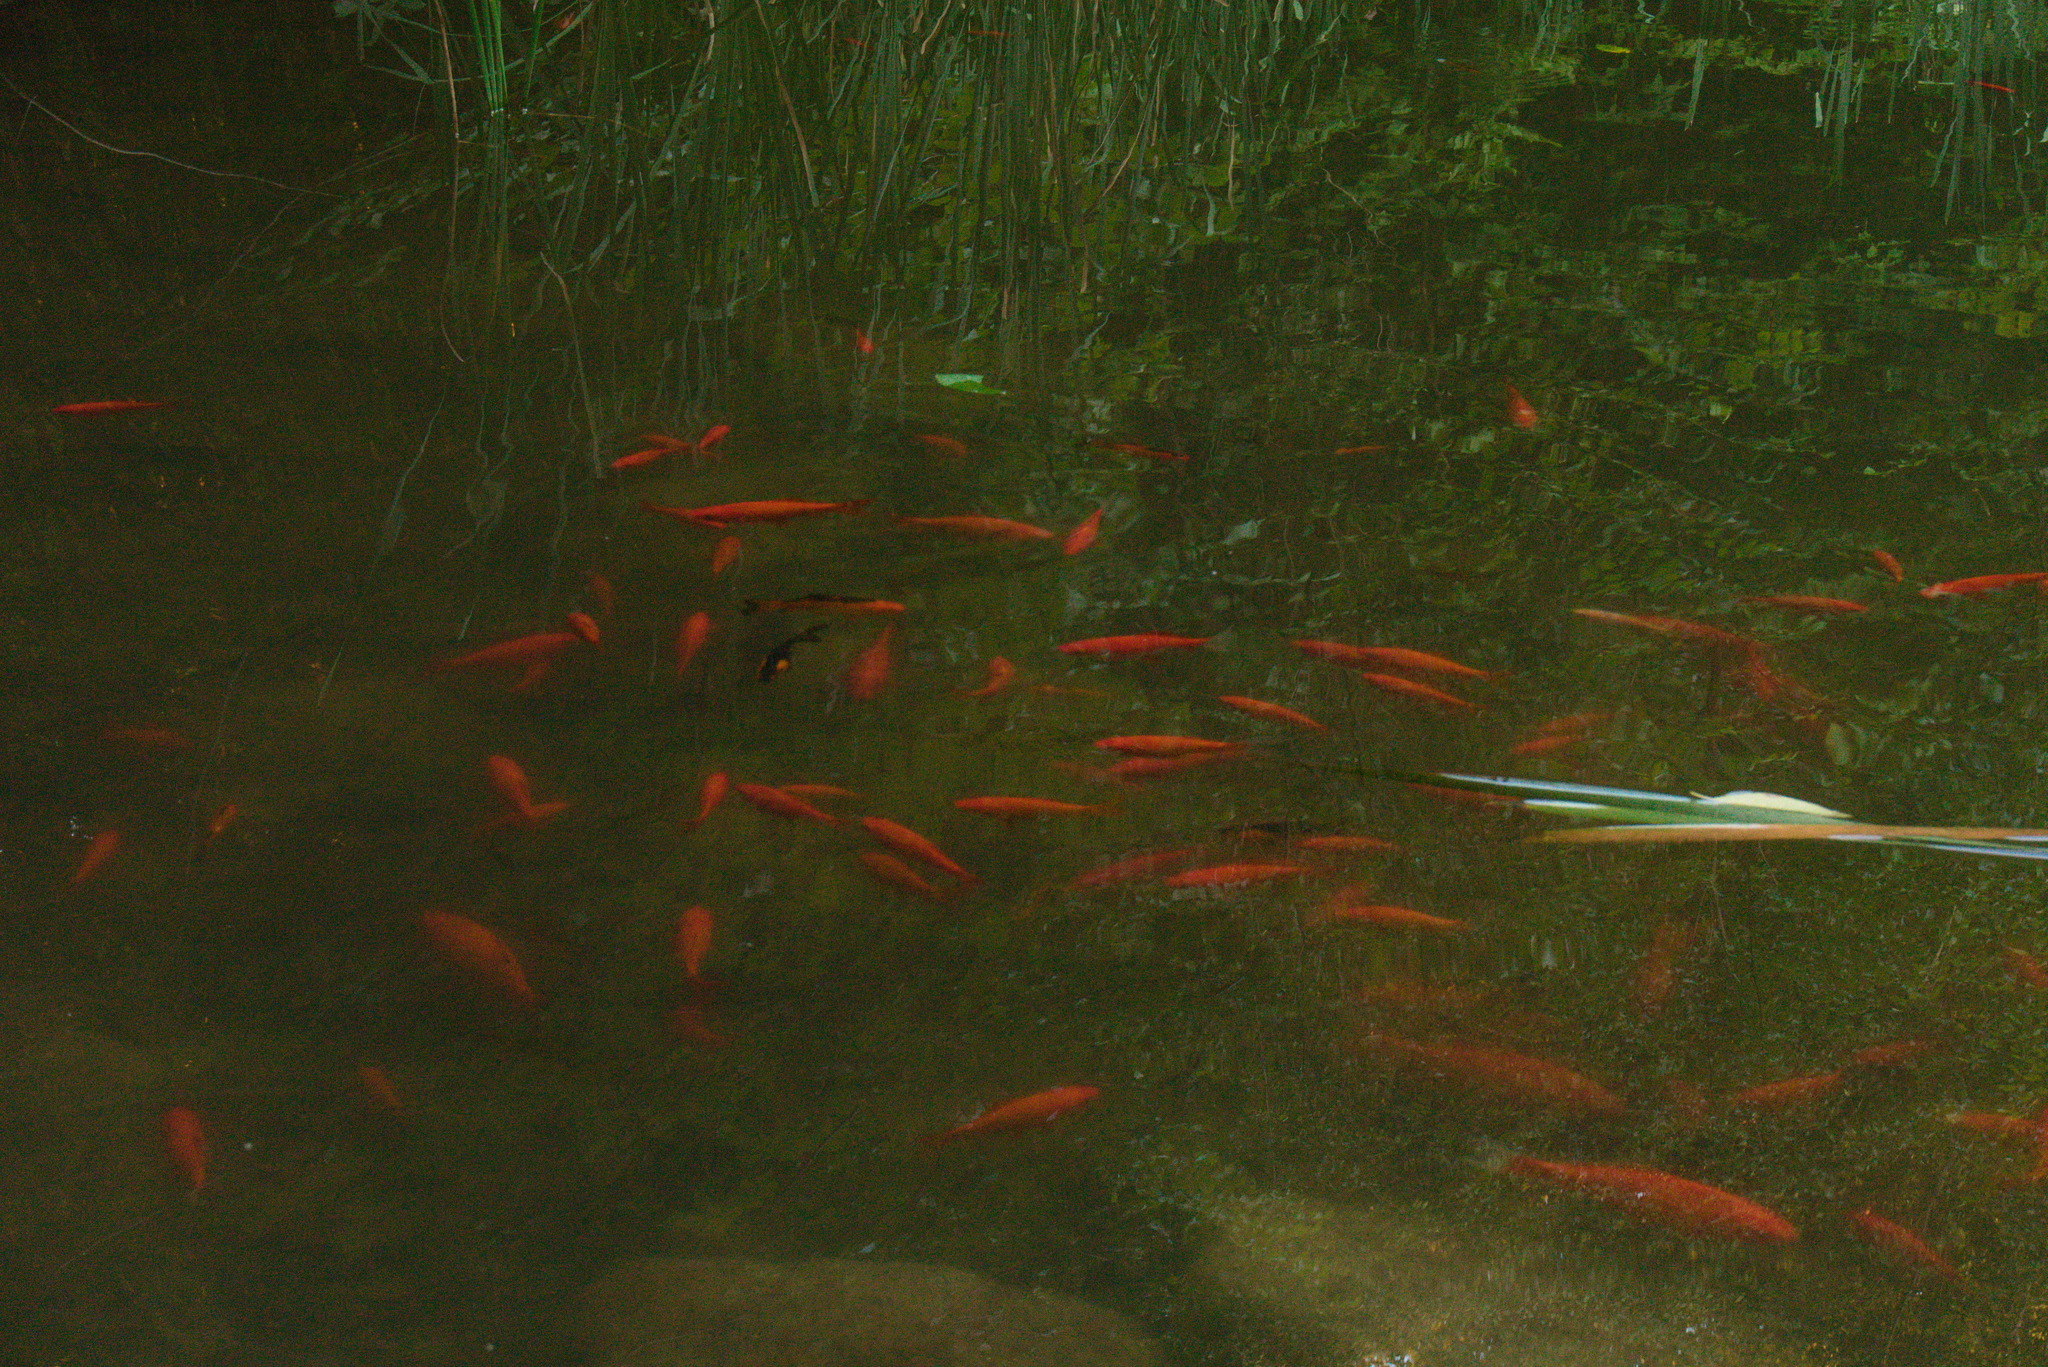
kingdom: Animalia
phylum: Chordata
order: Cypriniformes
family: Cyprinidae
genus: Carassius
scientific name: Carassius auratus
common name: Goldfish
